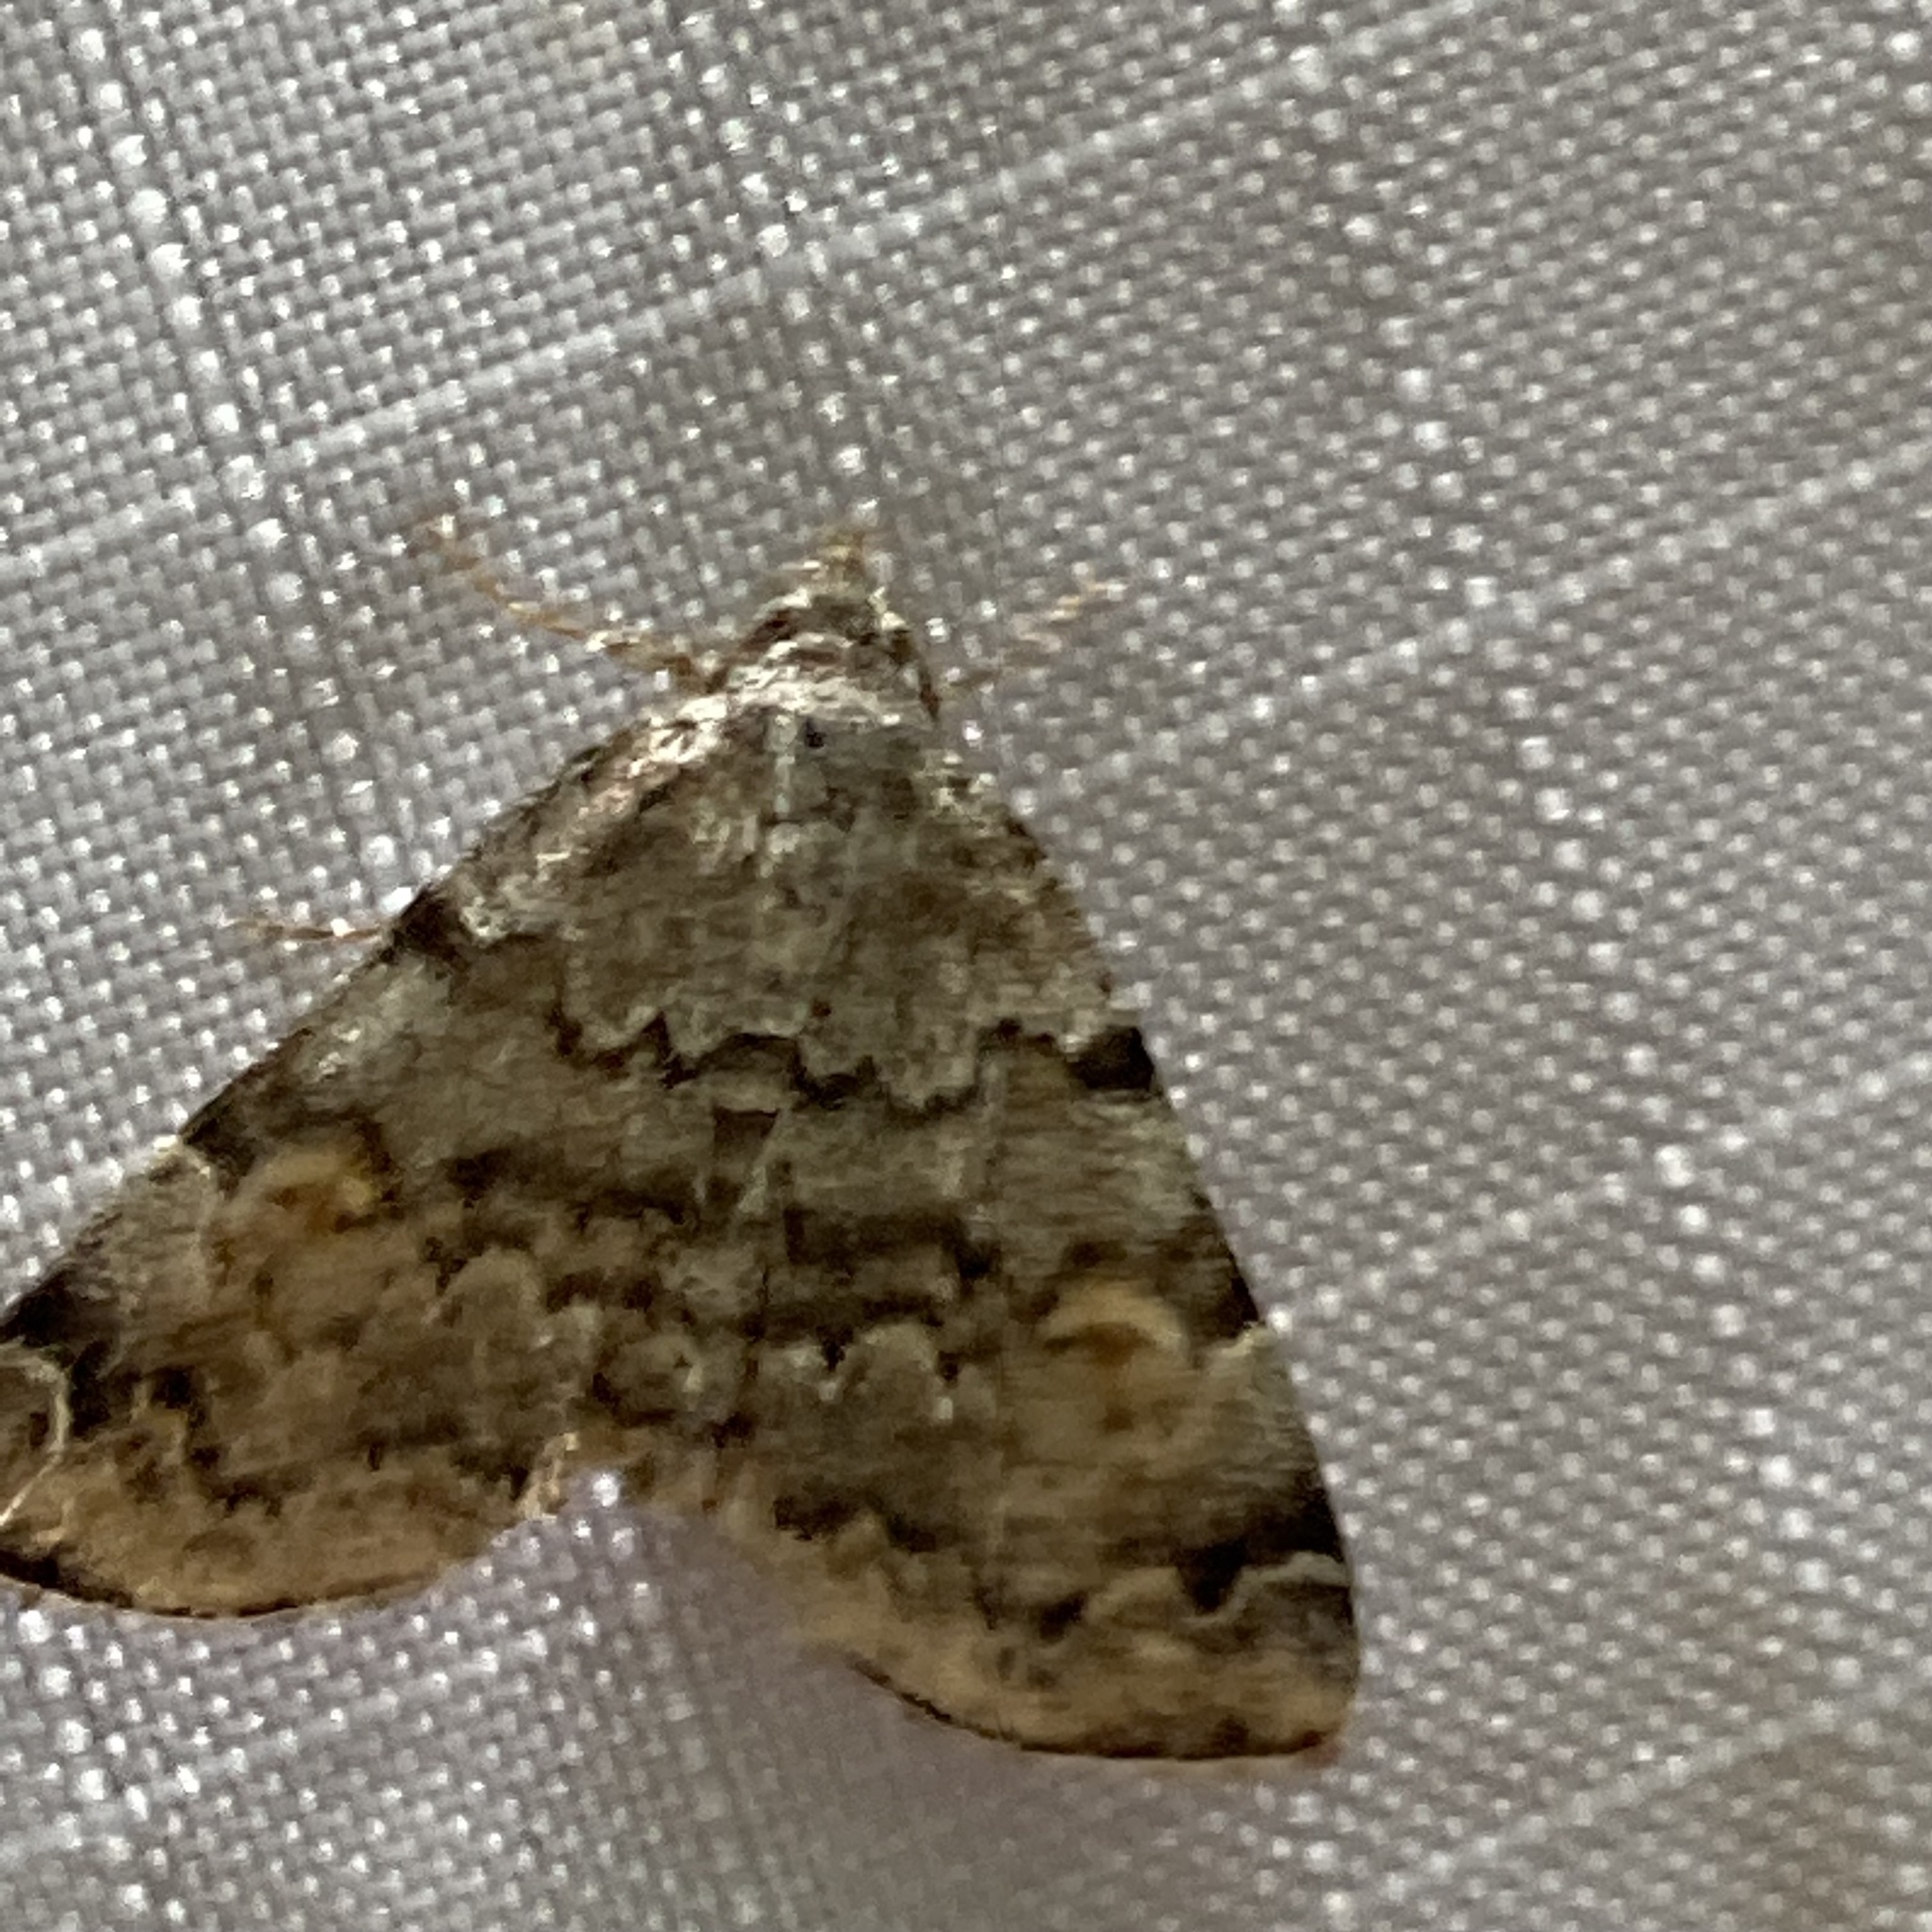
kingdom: Animalia
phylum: Arthropoda
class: Insecta
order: Lepidoptera
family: Erebidae
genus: Idia
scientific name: Idia americalis
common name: American idia moth
